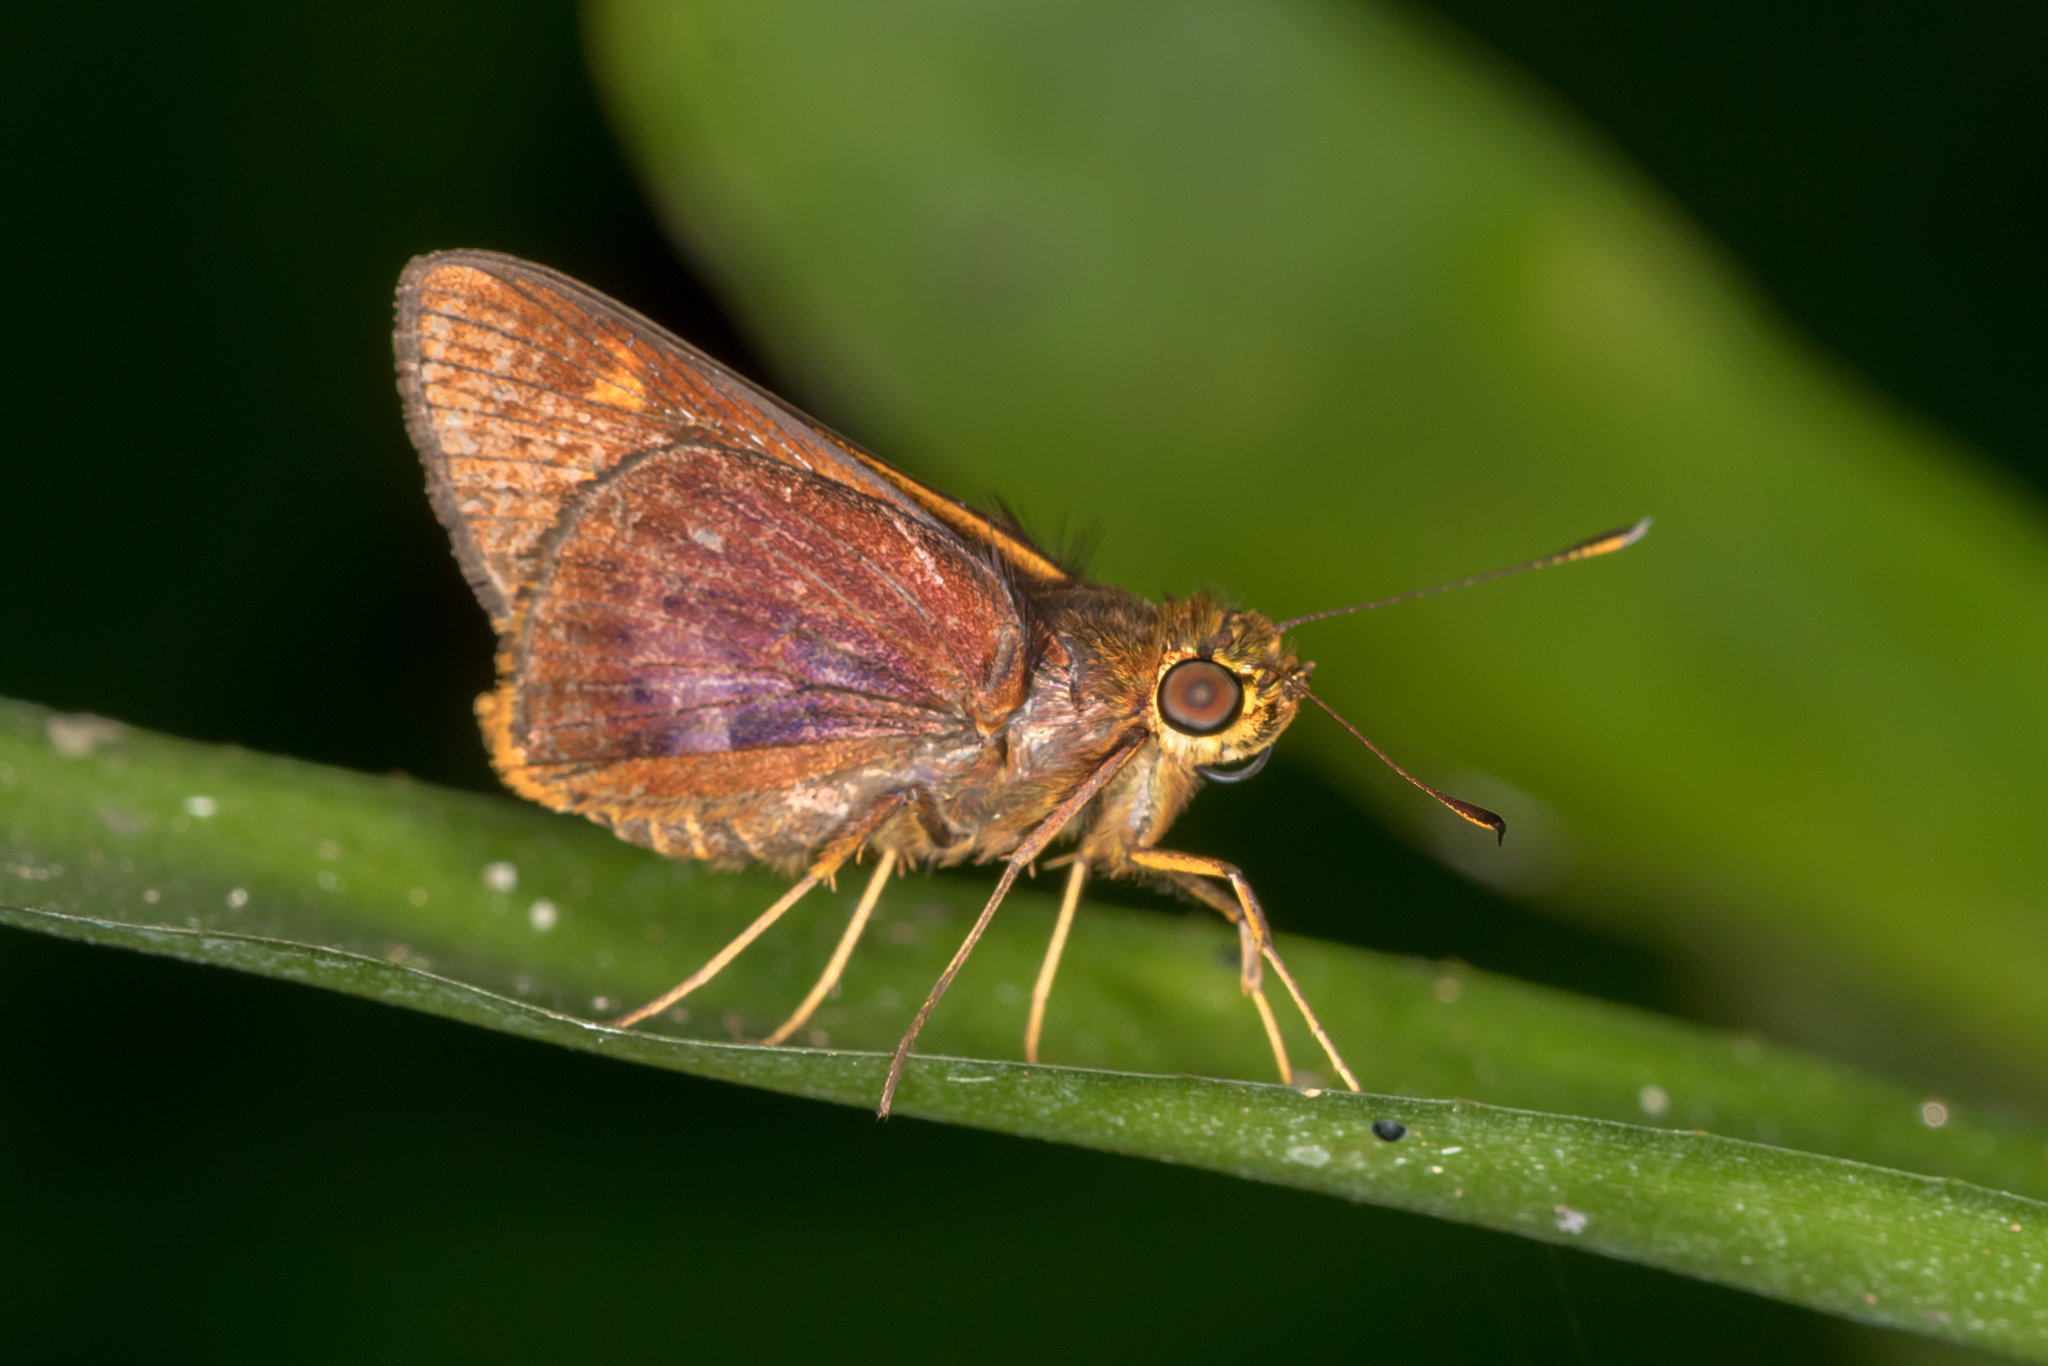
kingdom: Animalia
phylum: Arthropoda
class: Insecta
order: Lepidoptera
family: Hesperiidae
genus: Sabera
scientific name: Sabera dobboe
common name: Yellow-streaked swift
